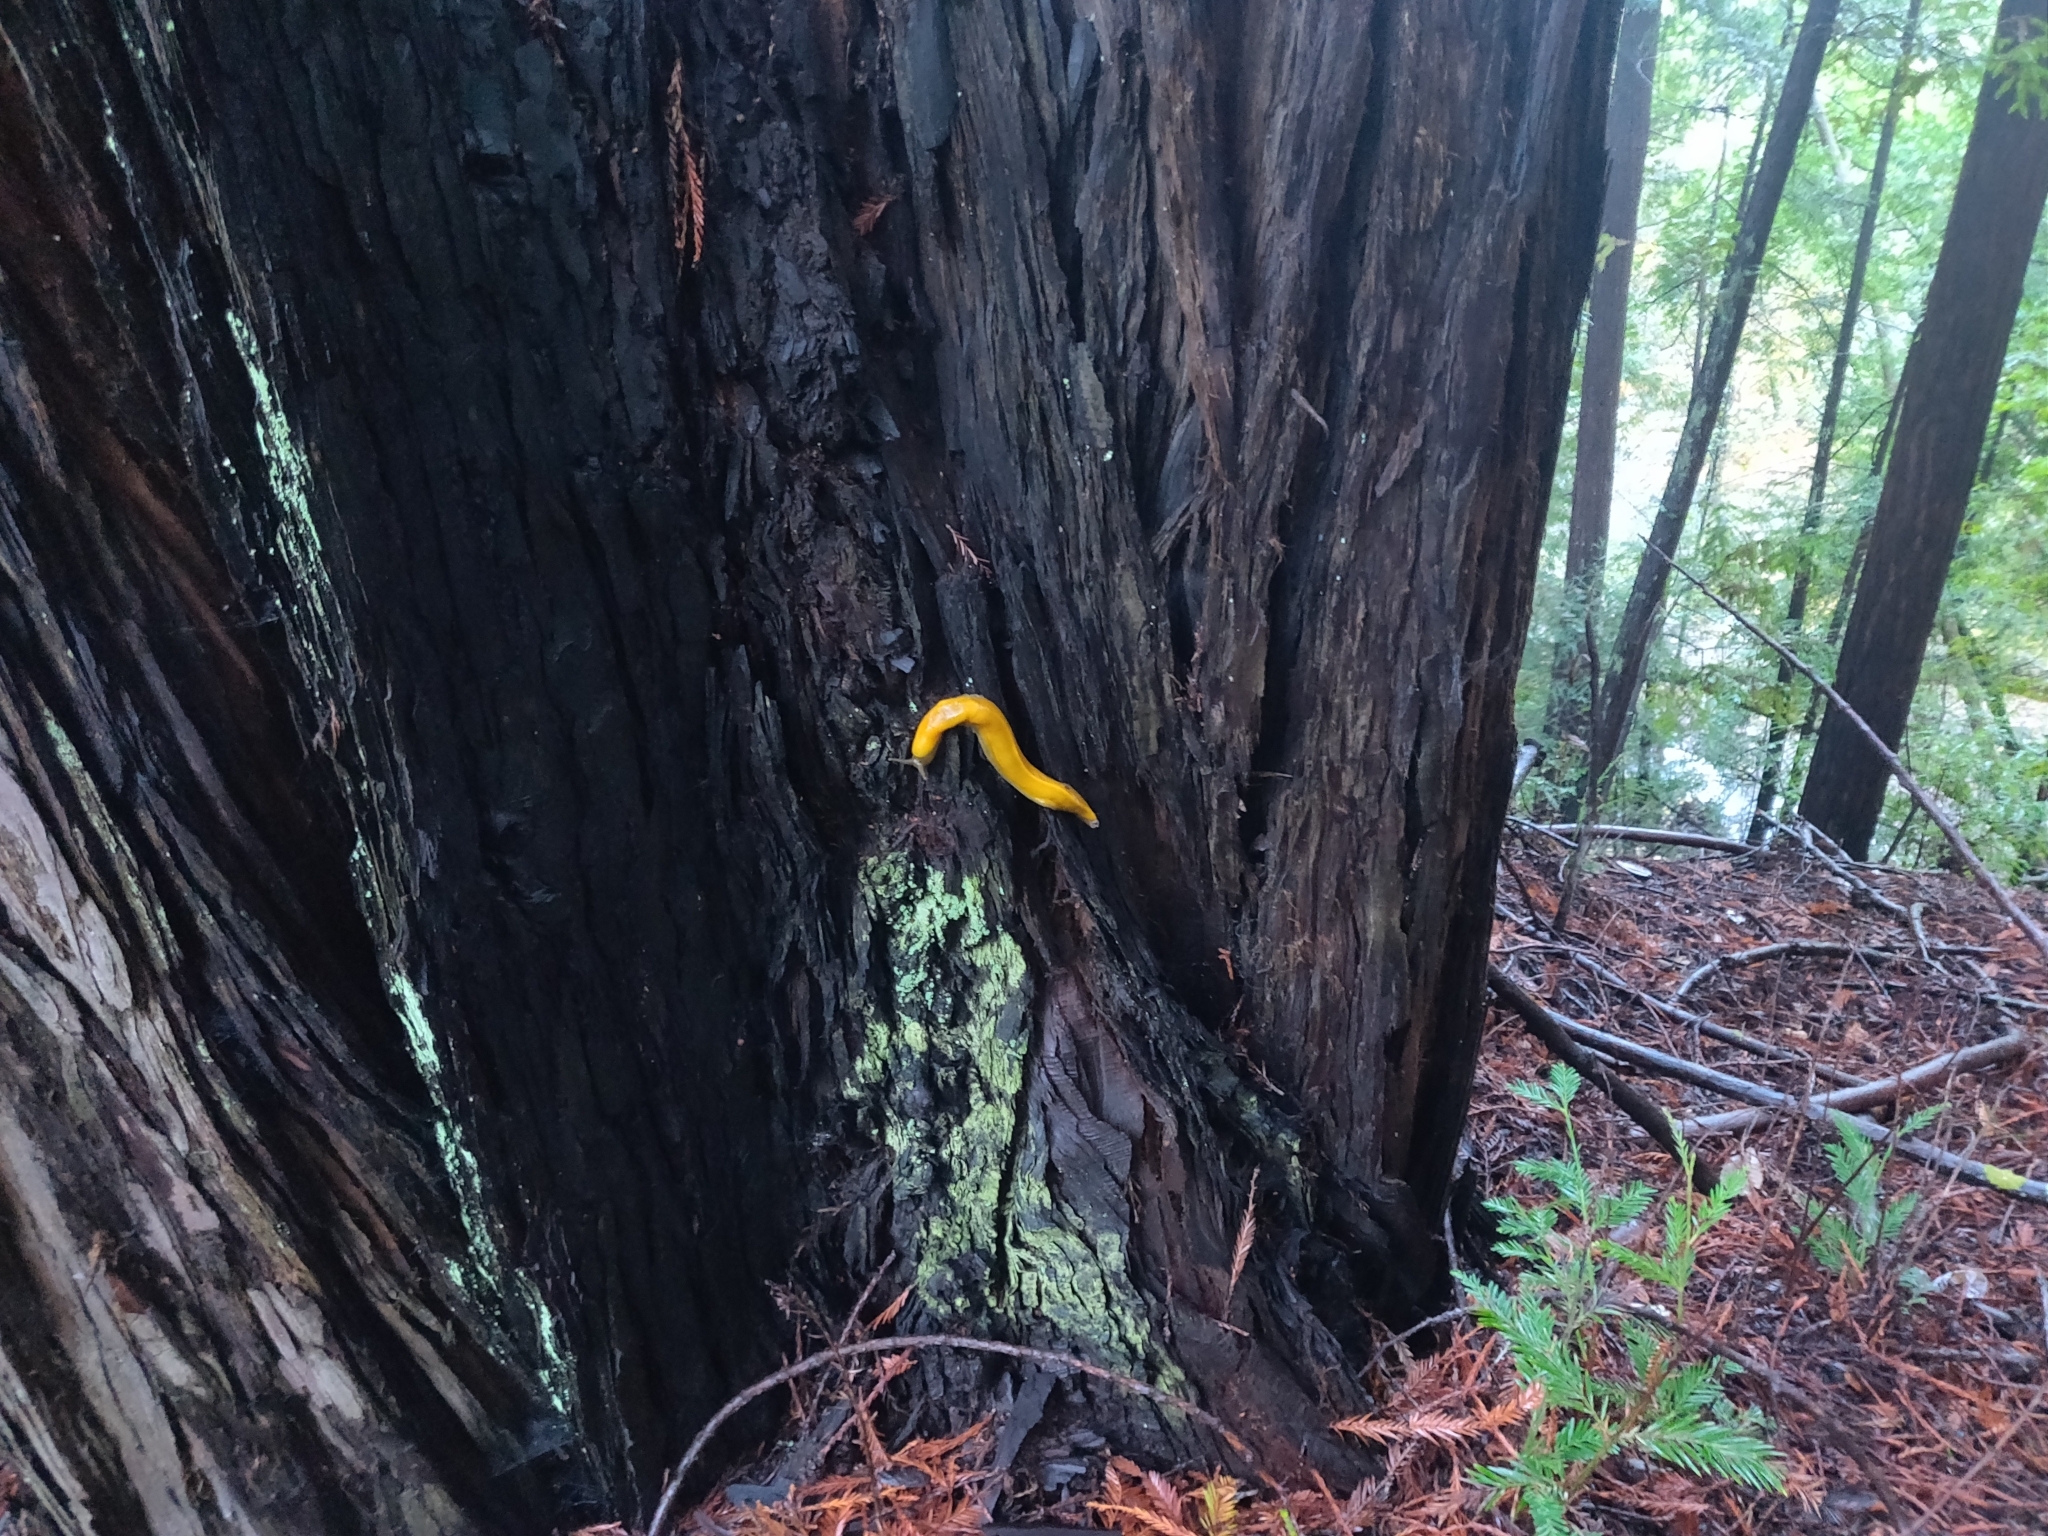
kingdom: Animalia
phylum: Mollusca
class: Gastropoda
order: Stylommatophora
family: Ariolimacidae
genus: Ariolimax
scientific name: Ariolimax californicus
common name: California banana slug
